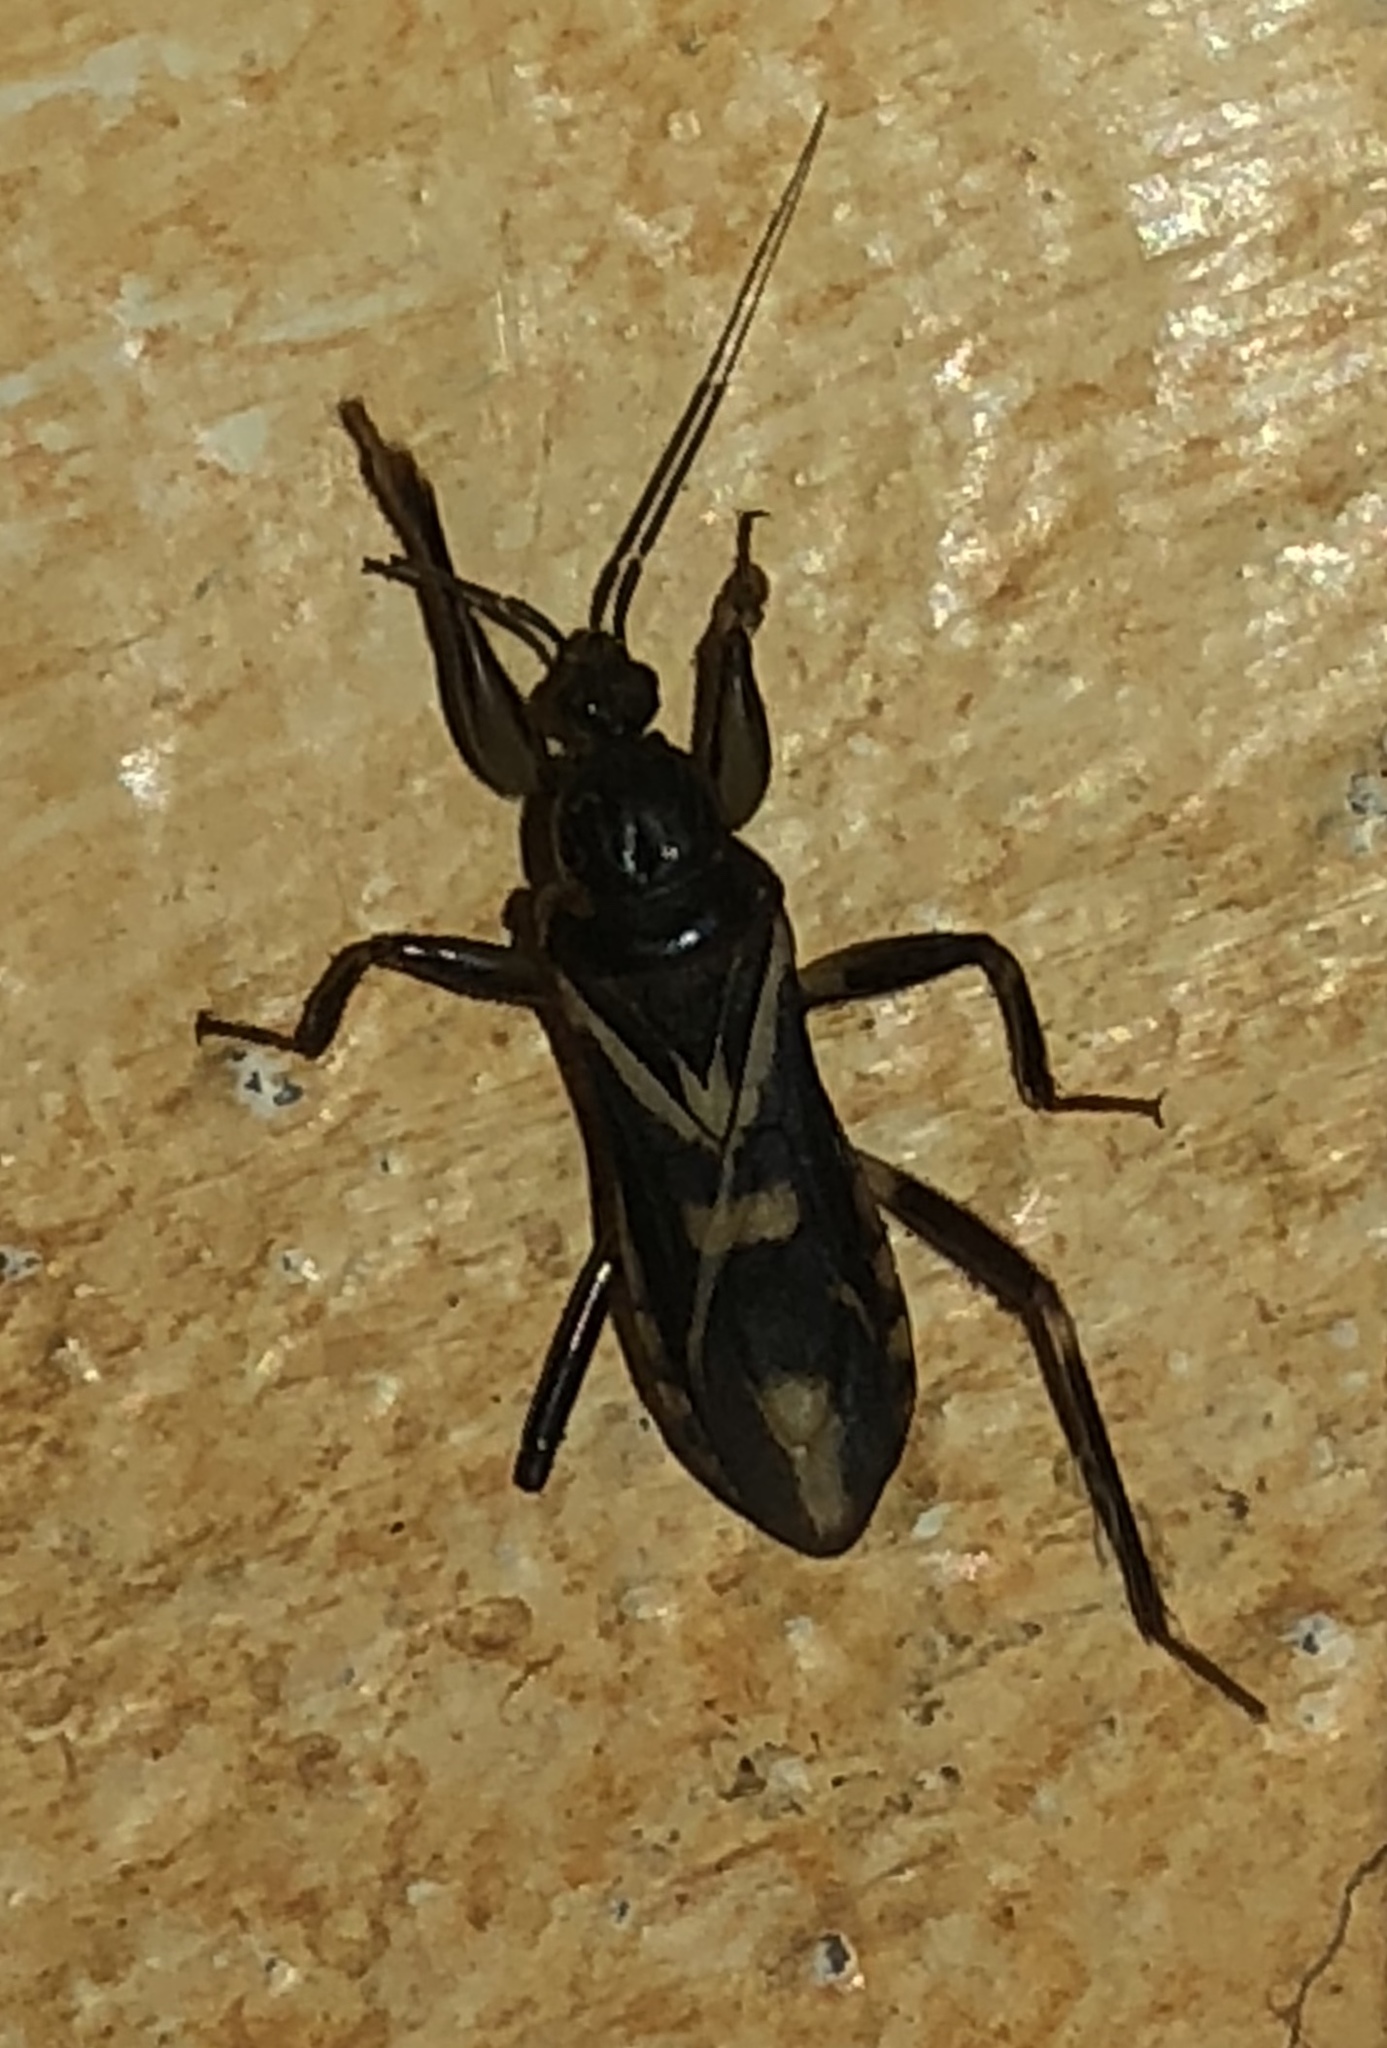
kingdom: Animalia
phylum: Arthropoda
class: Insecta
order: Hemiptera
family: Reduviidae
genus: Rasahus
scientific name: Rasahus sulcicollis
